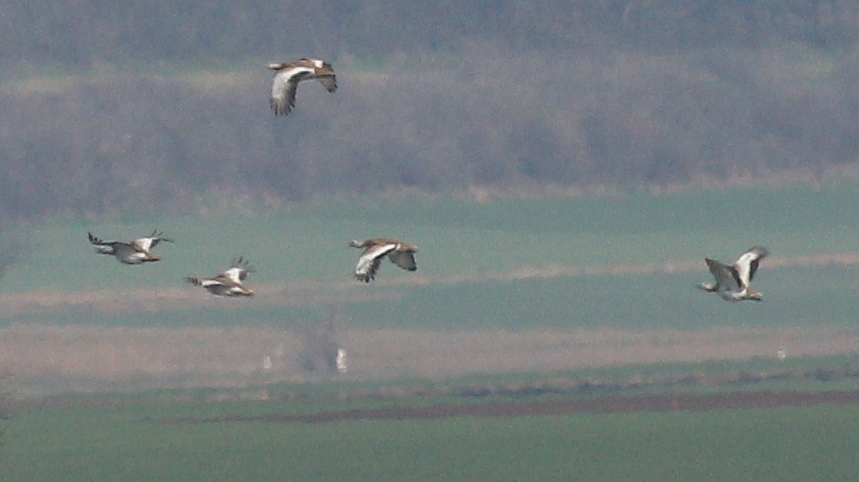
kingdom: Animalia
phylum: Chordata
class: Aves
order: Otidiformes
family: Otididae
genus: Otis
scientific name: Otis tarda
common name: Great bustard
